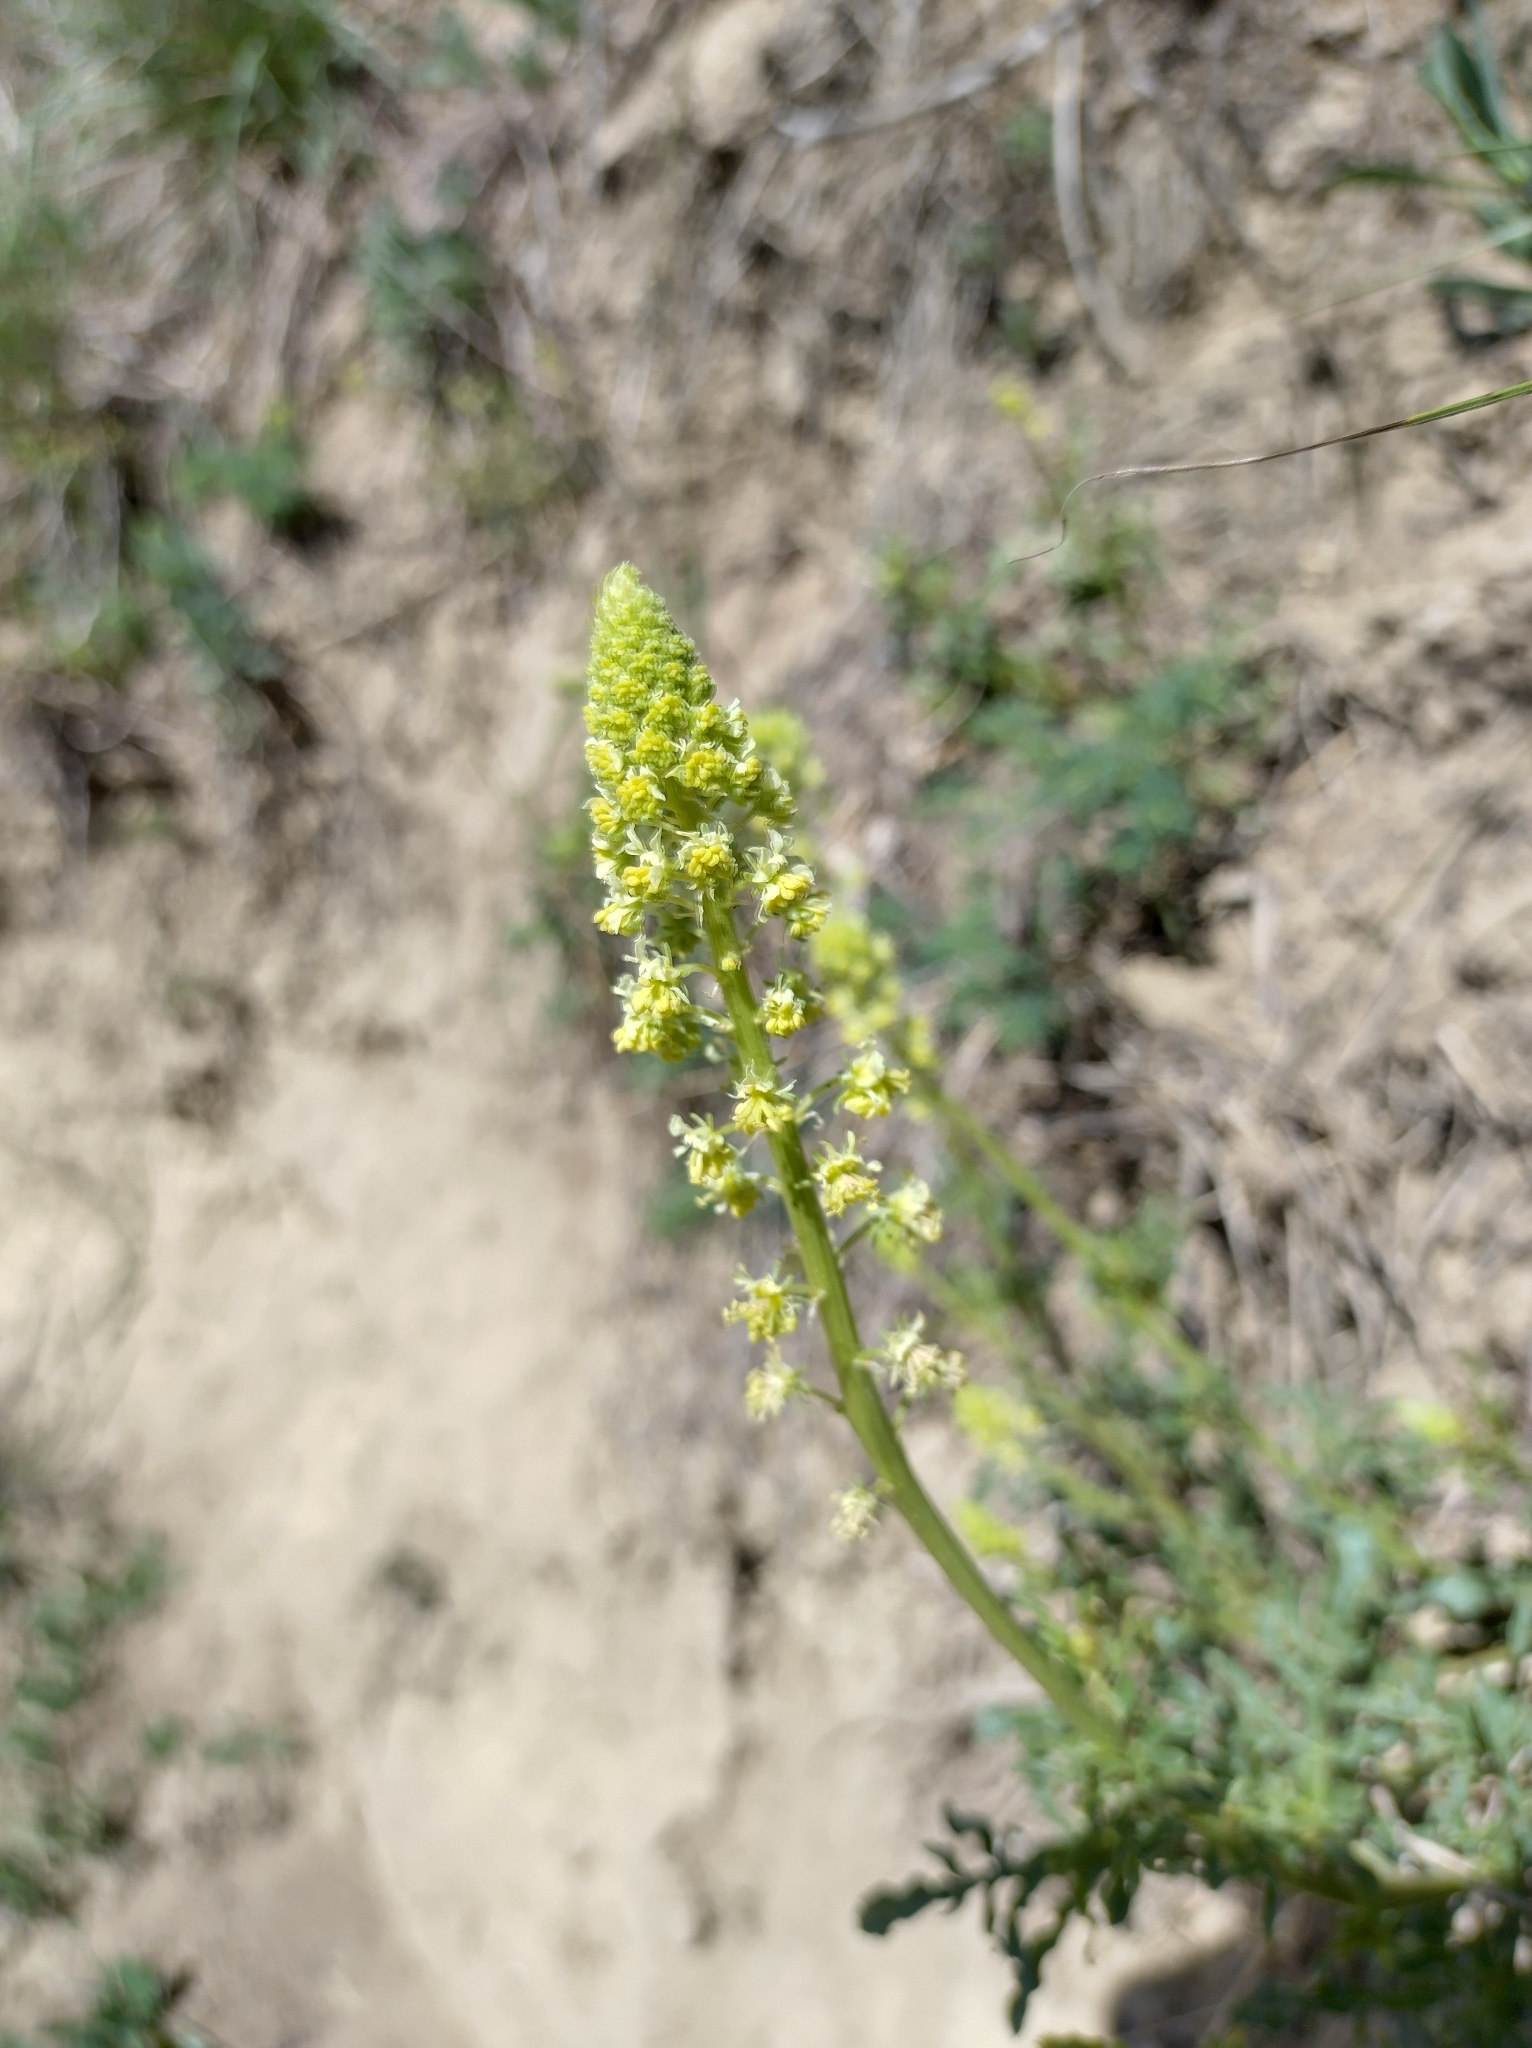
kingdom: Plantae
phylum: Tracheophyta
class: Magnoliopsida
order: Brassicales
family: Resedaceae
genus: Reseda
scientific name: Reseda lutea
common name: Wild mignonette
